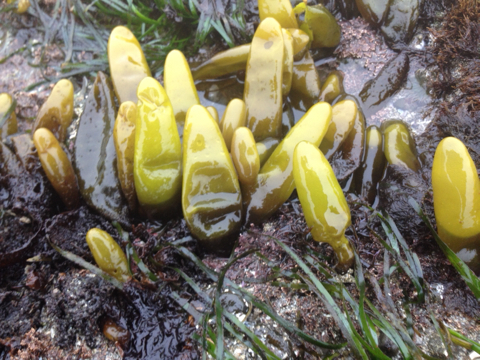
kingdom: Plantae
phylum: Rhodophyta
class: Florideophyceae
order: Palmariales
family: Palmariaceae
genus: Halosaccion
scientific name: Halosaccion glandiforme
